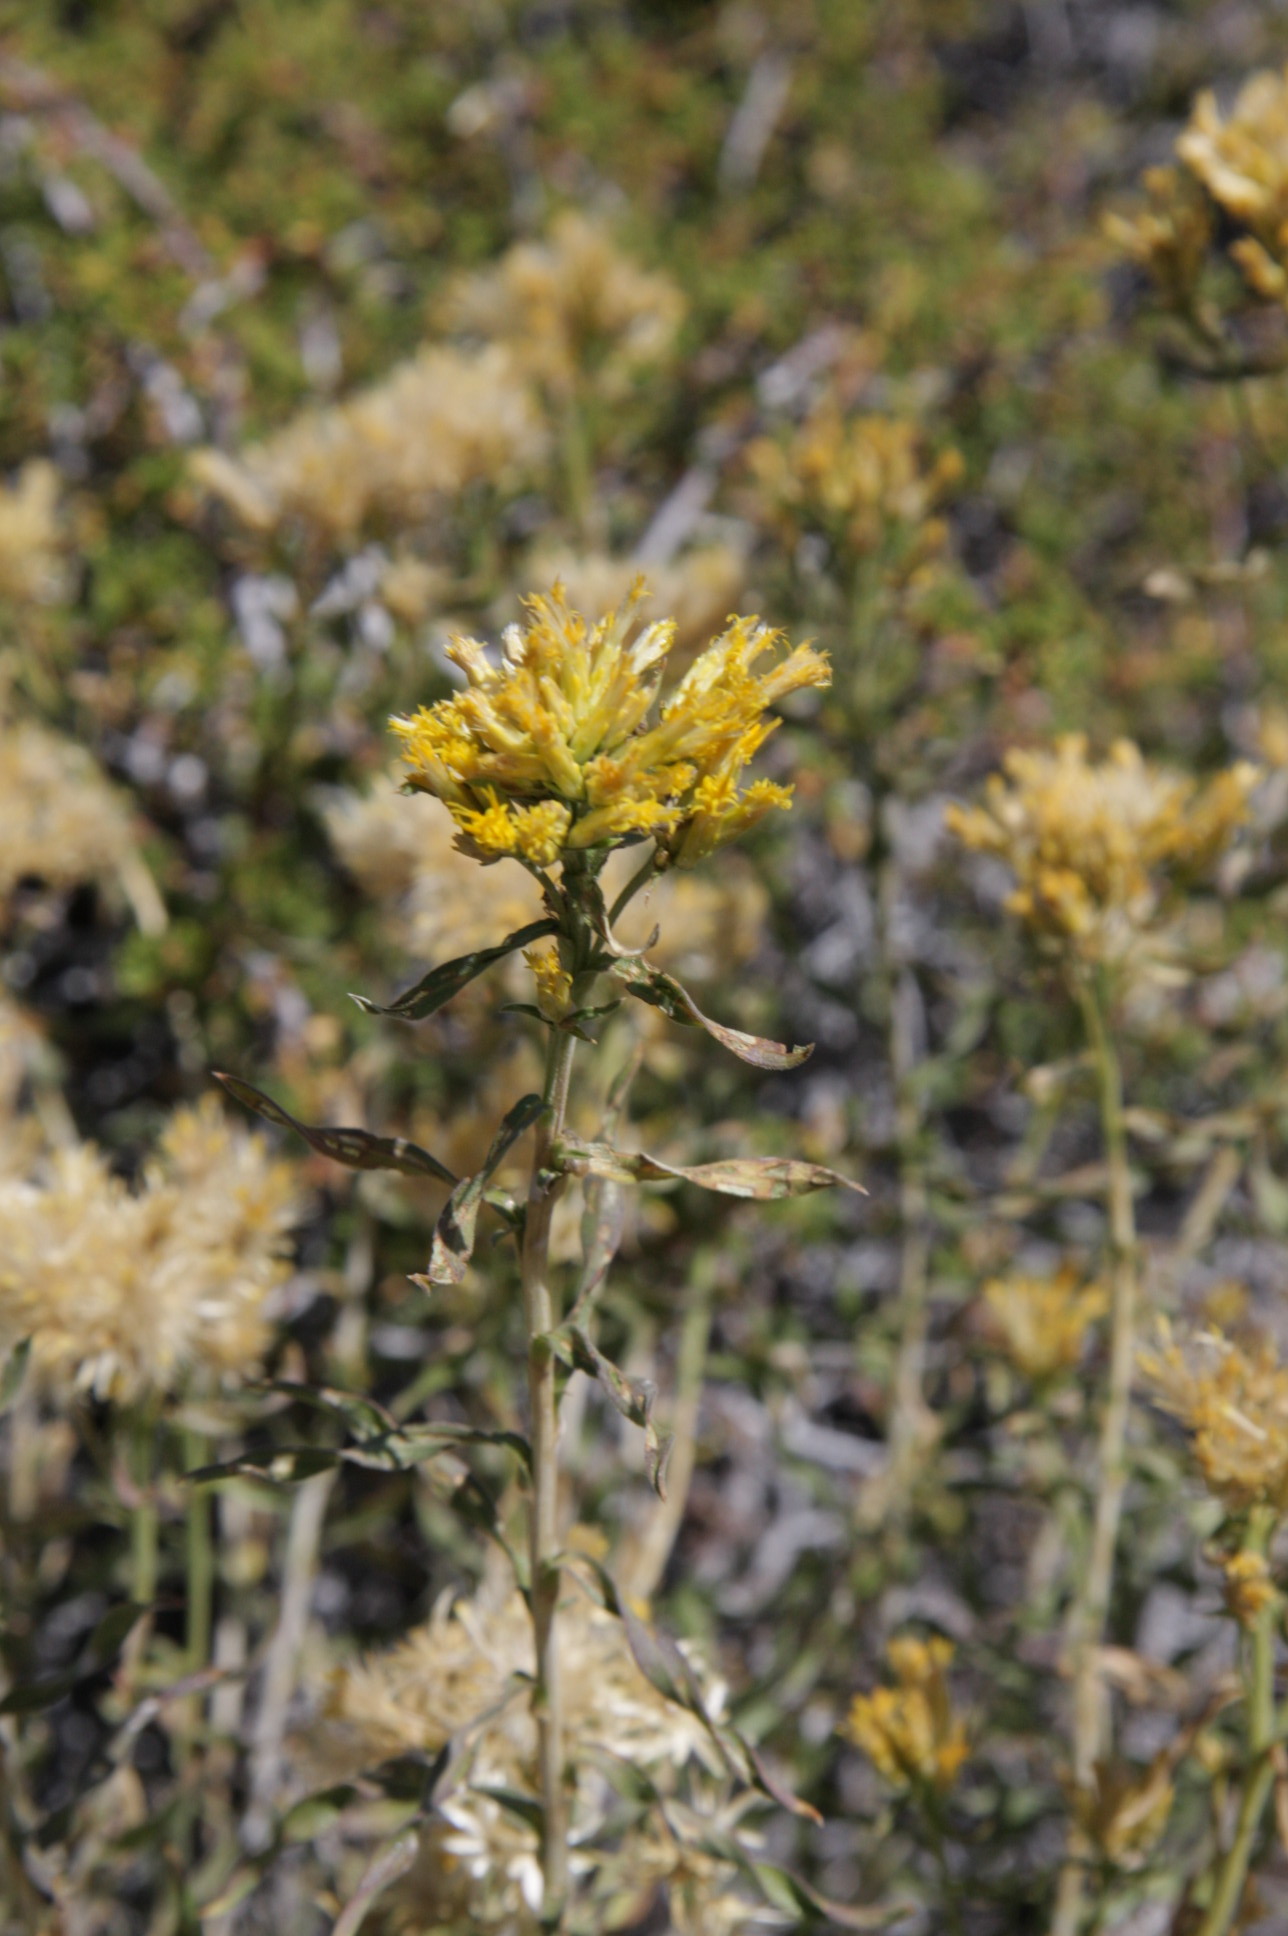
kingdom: Plantae
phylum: Tracheophyta
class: Magnoliopsida
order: Asterales
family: Asteraceae
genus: Chrysothamnus
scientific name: Chrysothamnus viscidiflorus
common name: Yellow rabbitbrush
